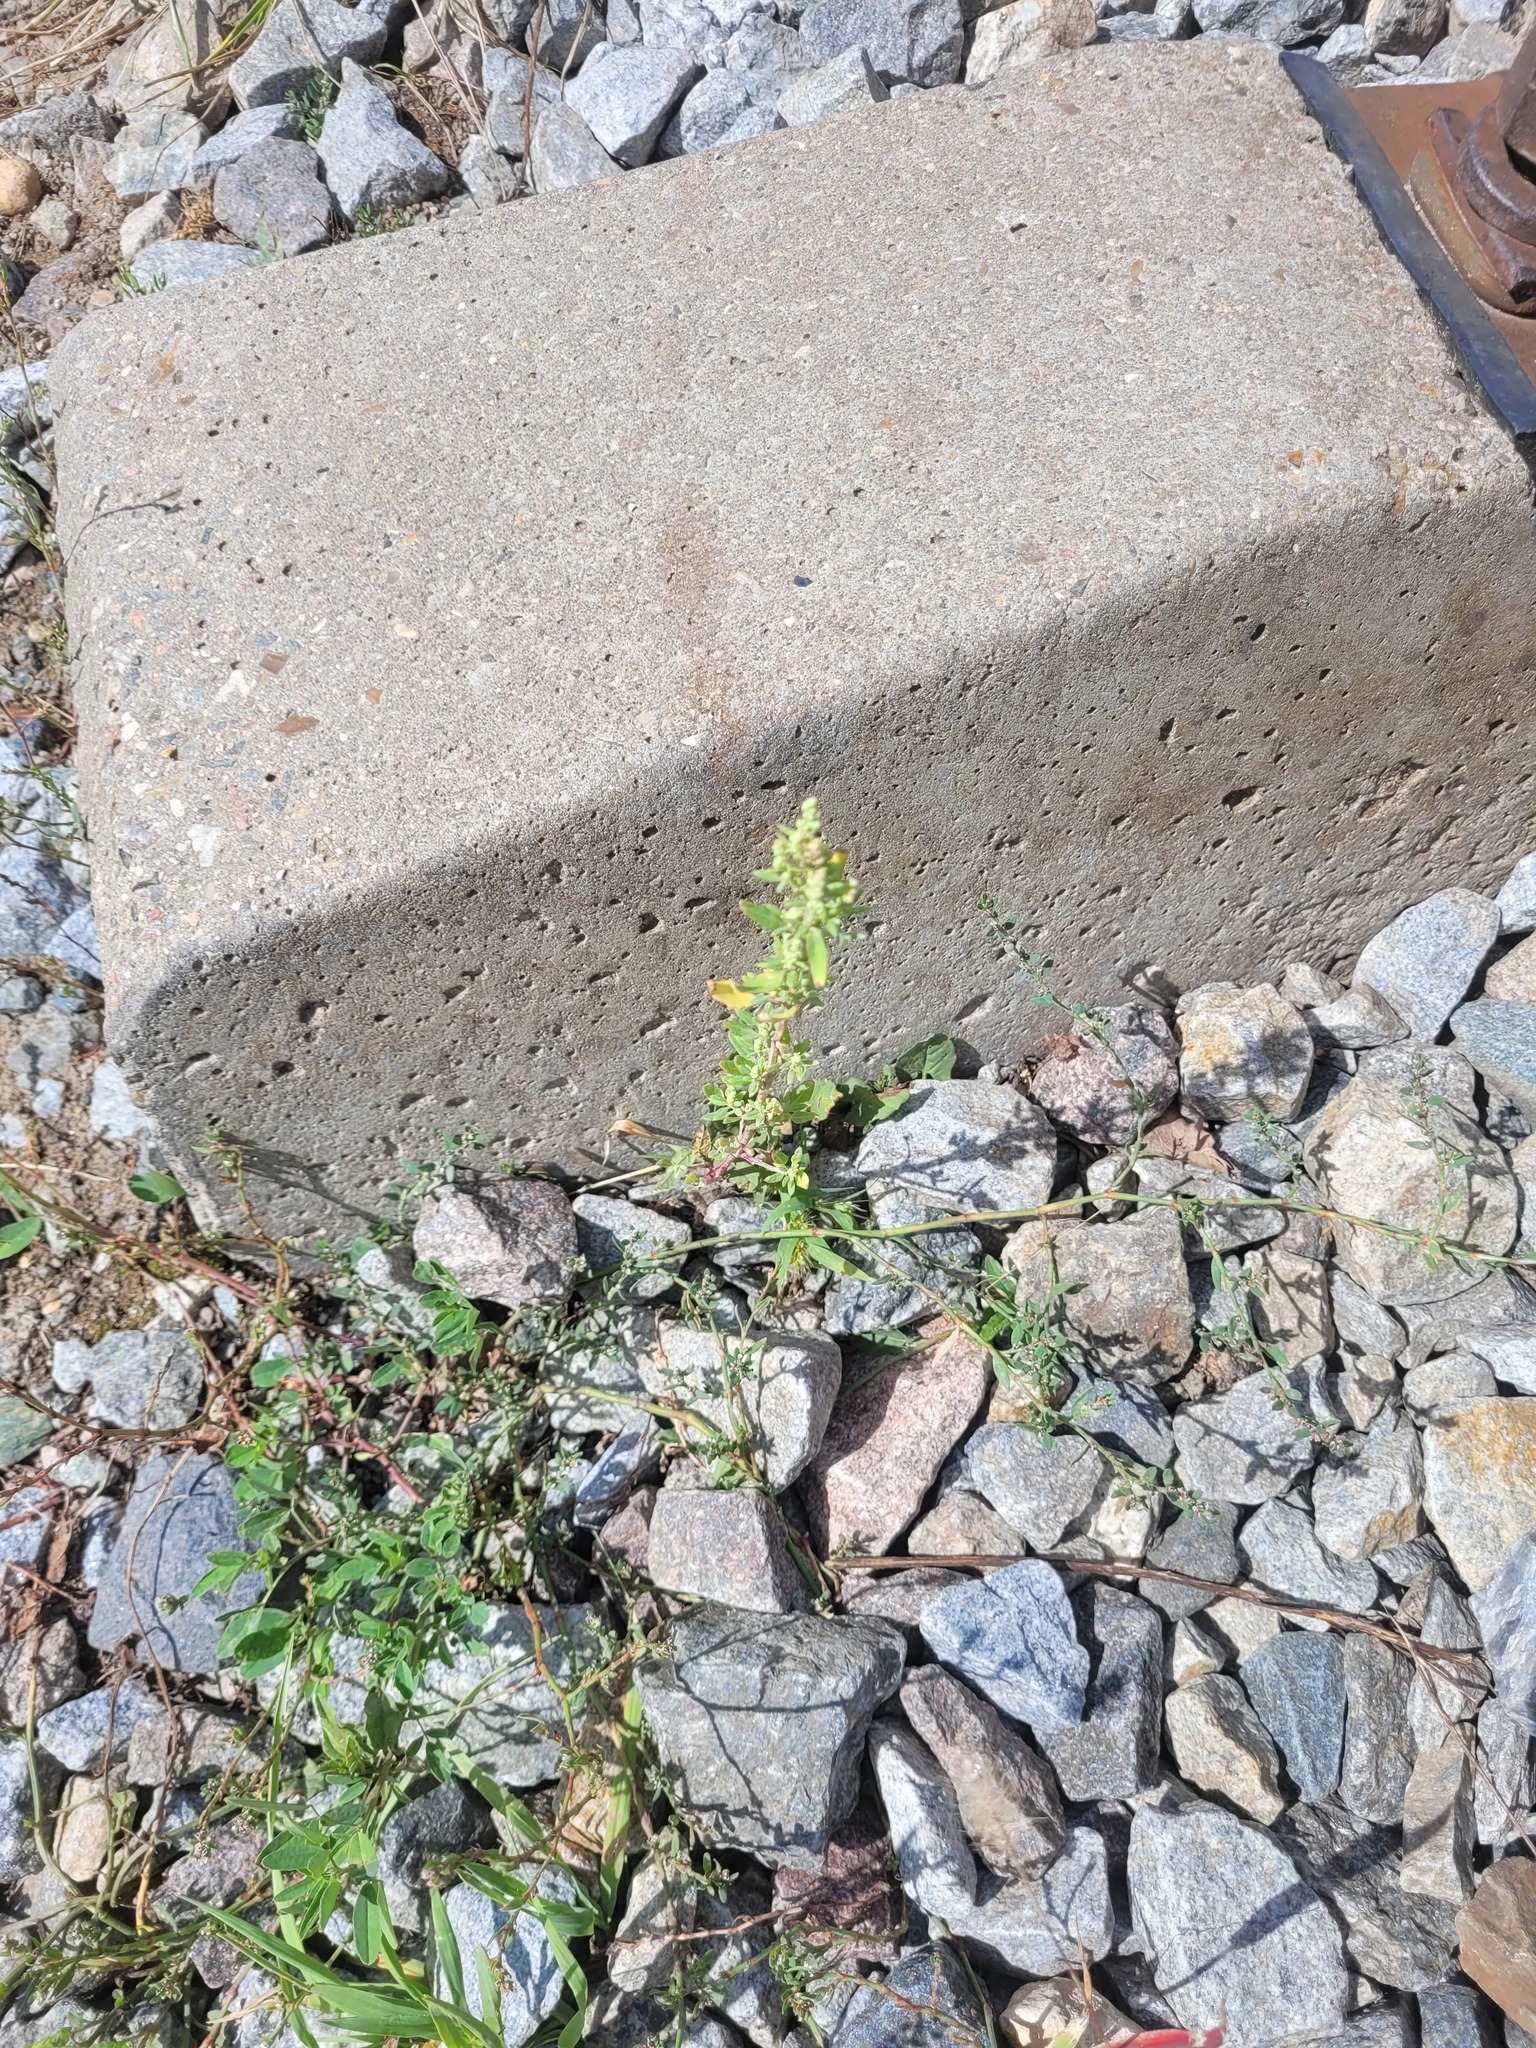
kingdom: Plantae
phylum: Tracheophyta
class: Magnoliopsida
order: Caryophyllales
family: Amaranthaceae
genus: Chenopodium
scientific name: Chenopodium album
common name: Fat-hen
